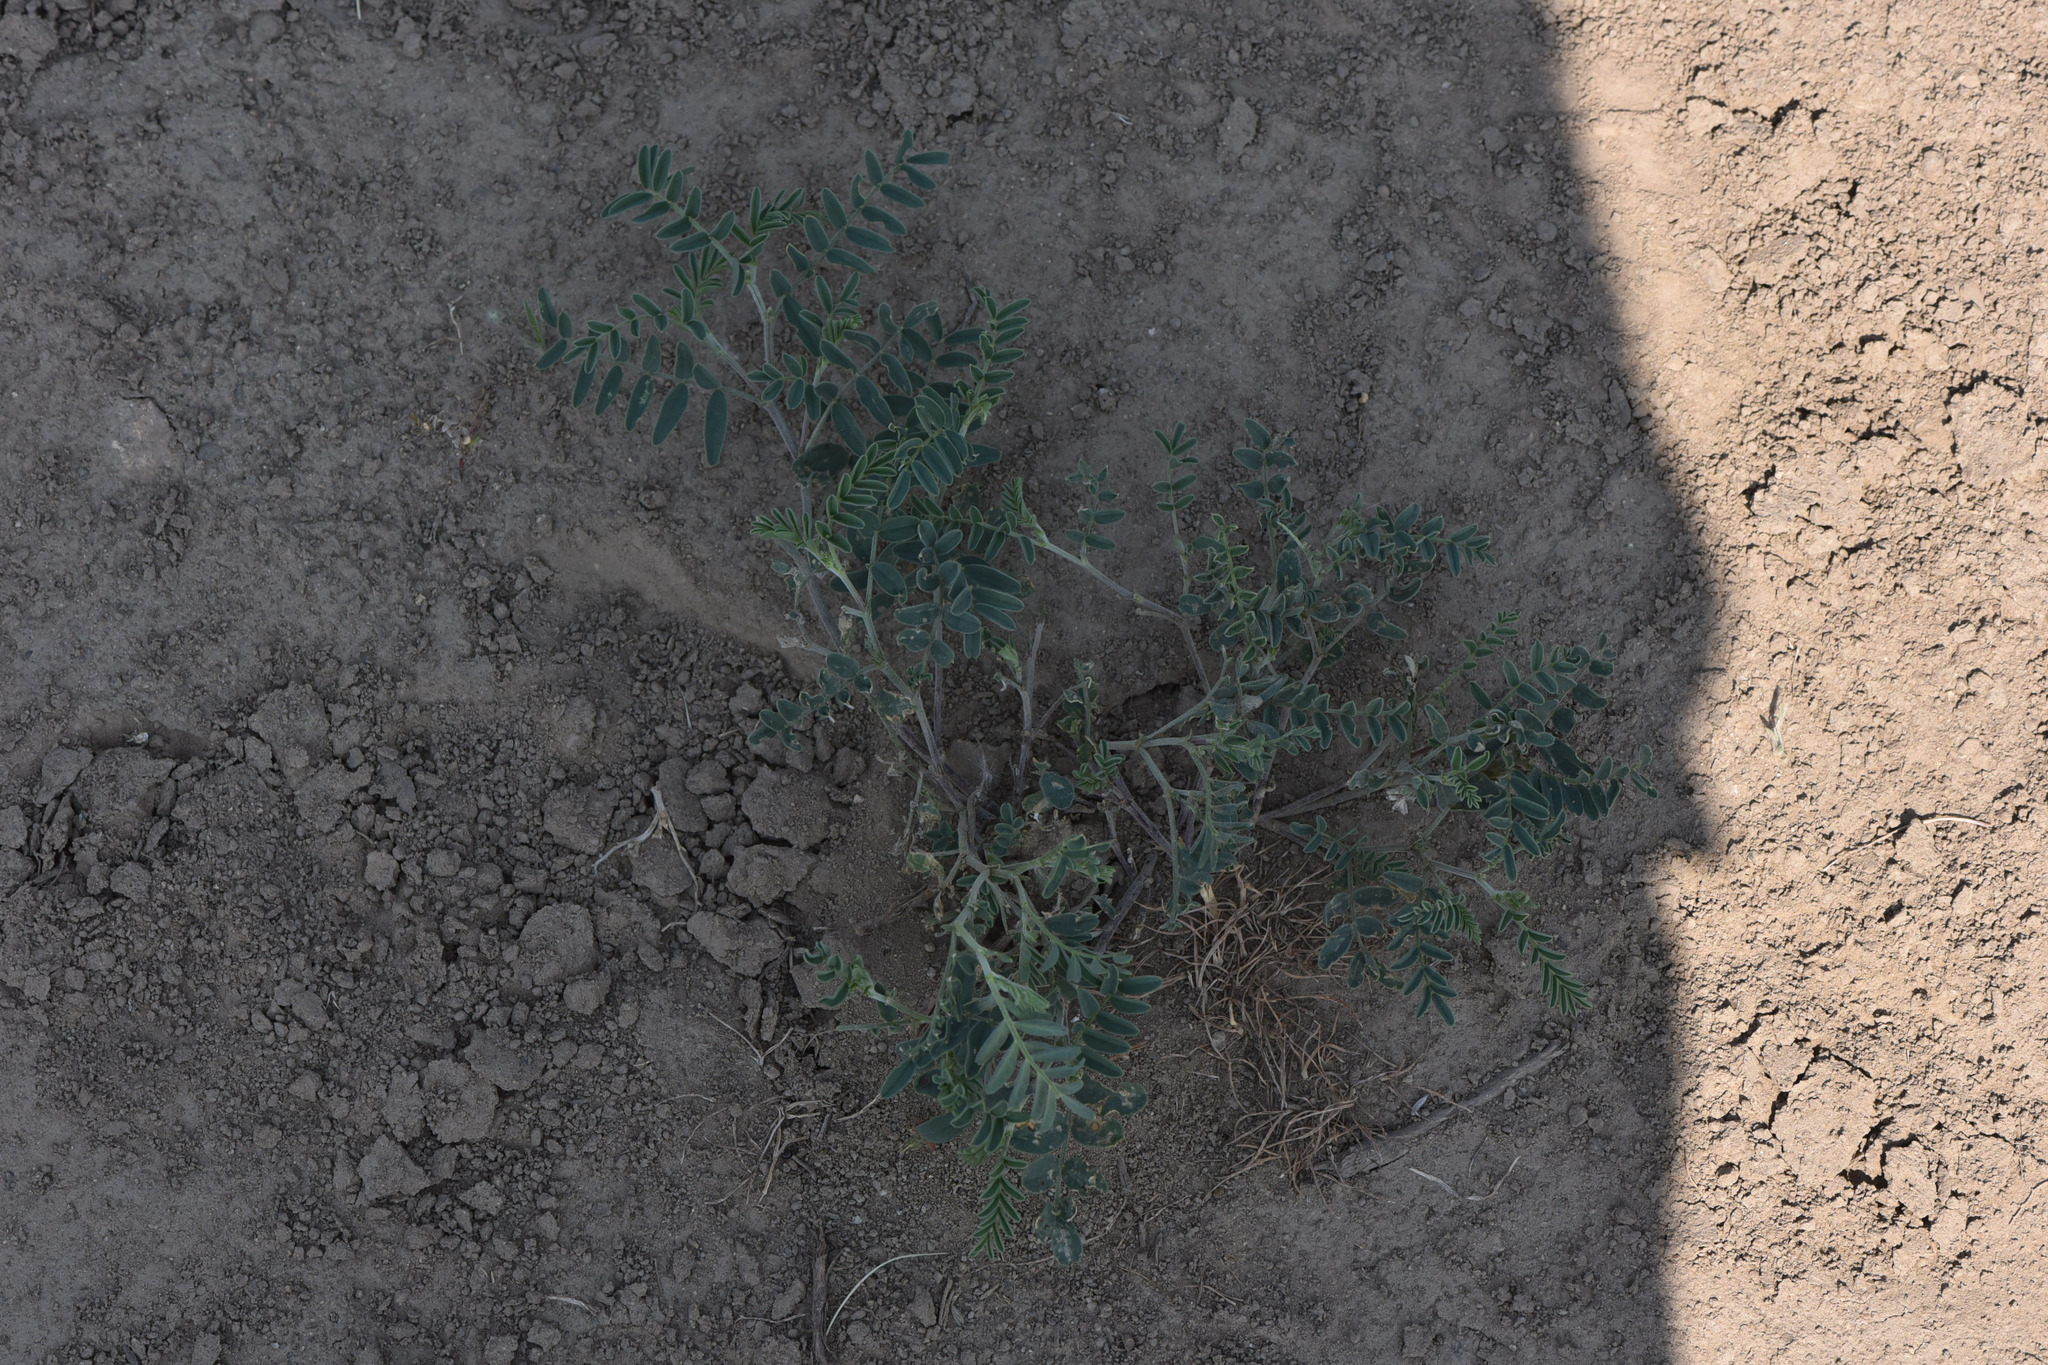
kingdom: Plantae
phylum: Tracheophyta
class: Magnoliopsida
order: Fabales
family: Fabaceae
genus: Astragalus
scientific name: Astragalus collinus
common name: Hill milk-vetch
